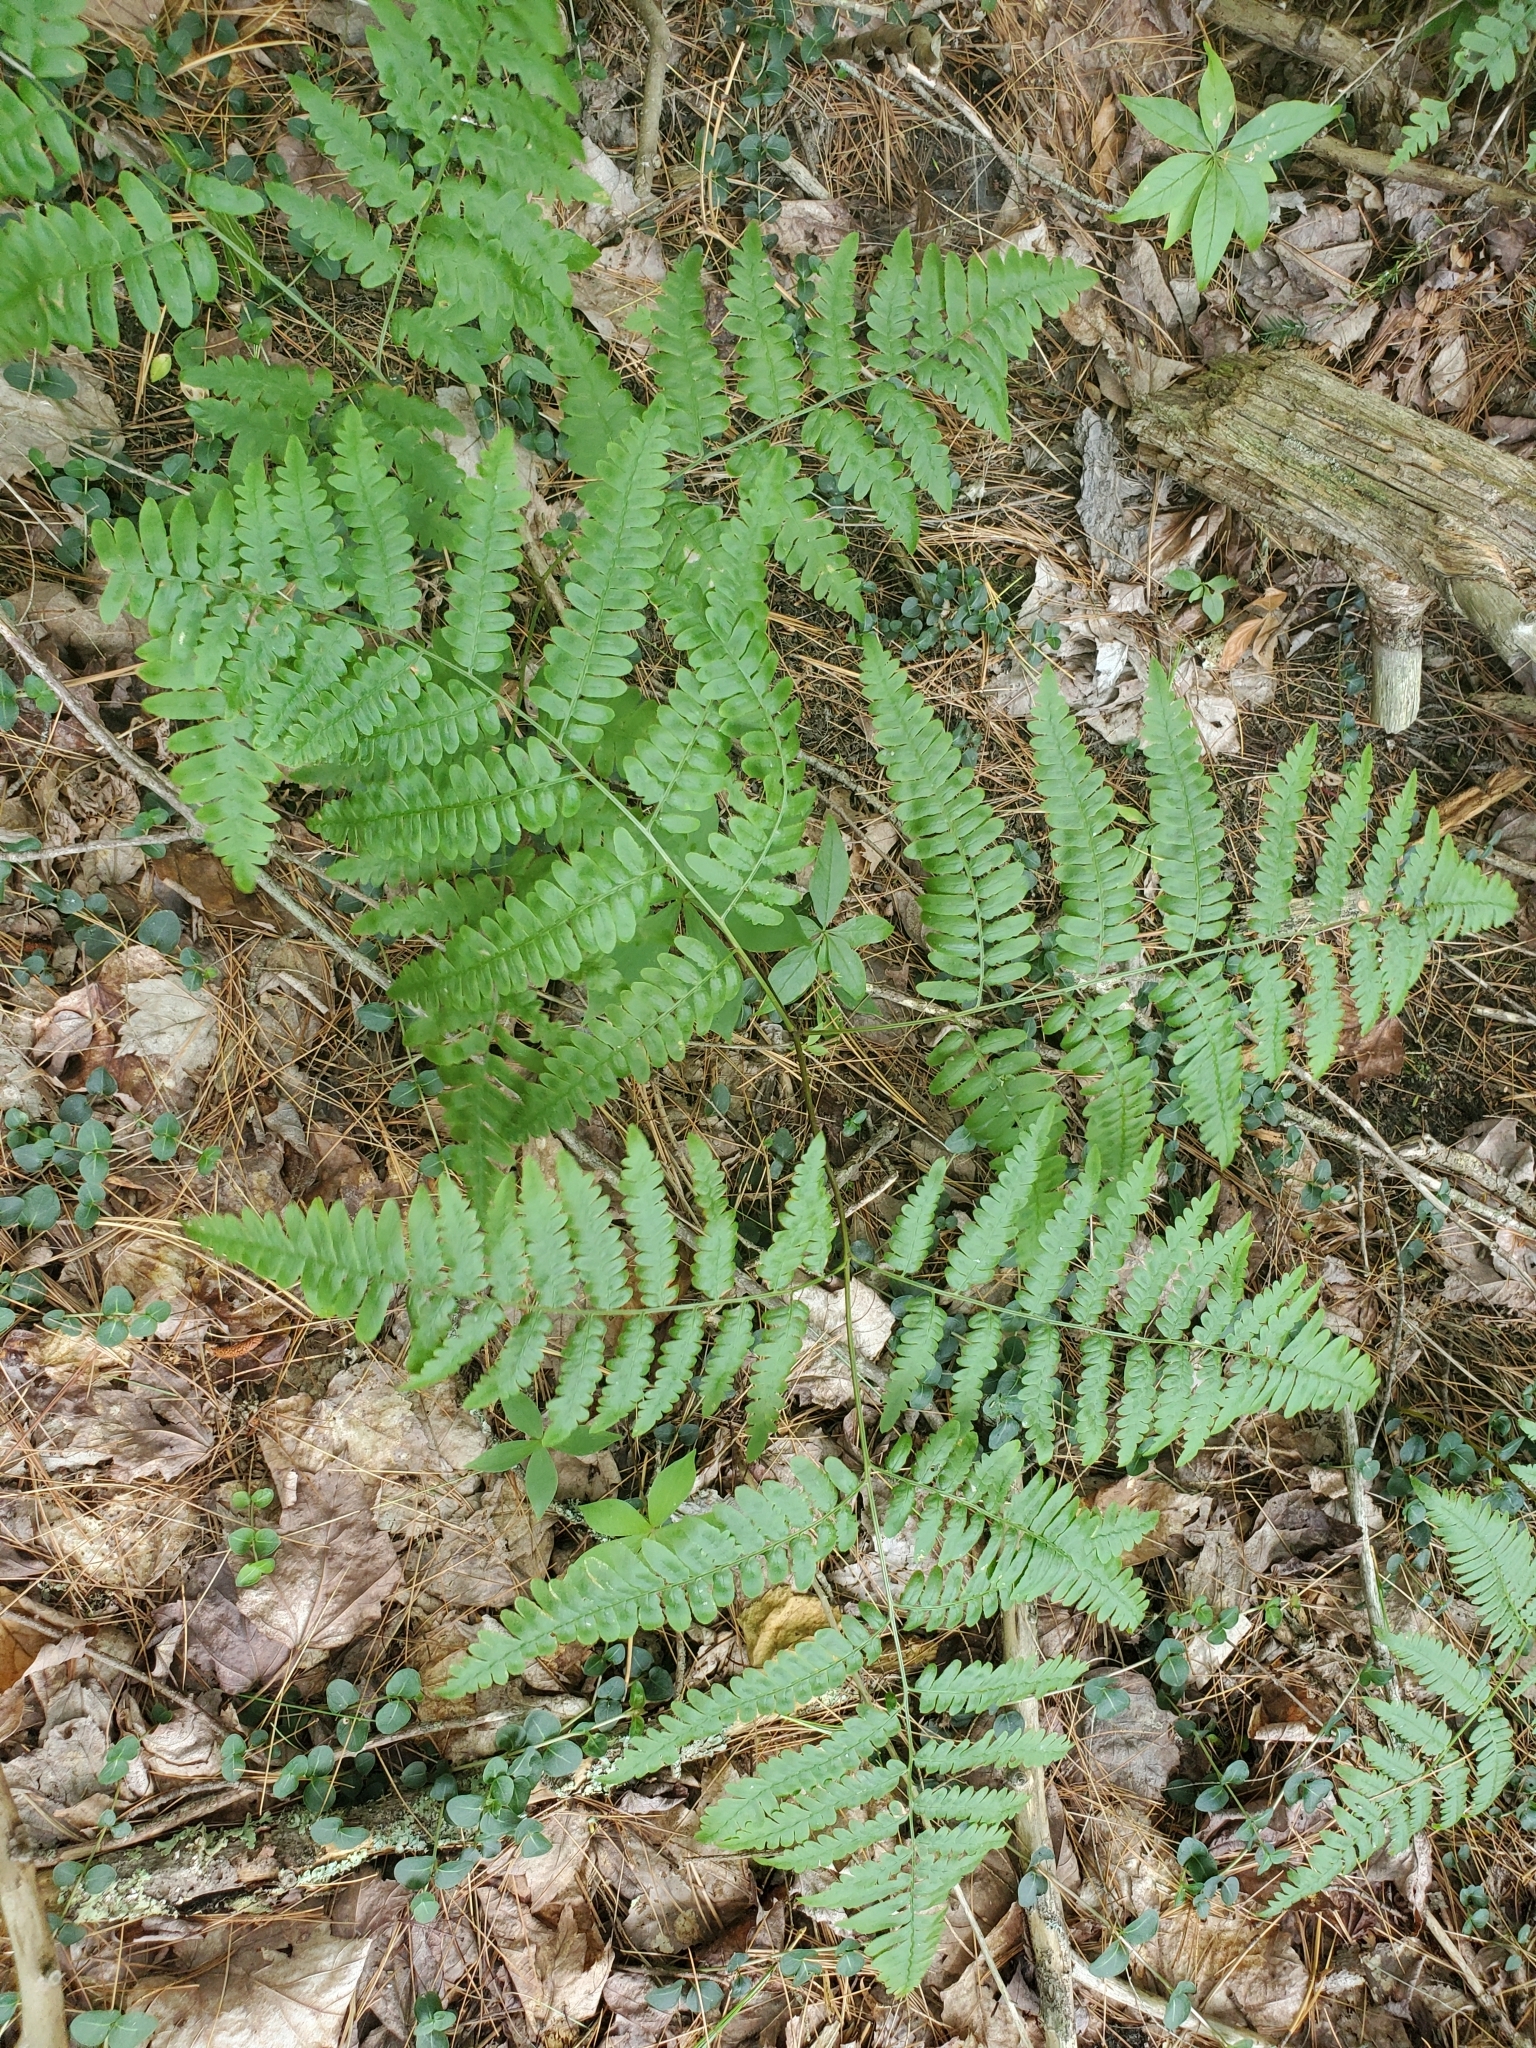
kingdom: Plantae
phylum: Tracheophyta
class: Polypodiopsida
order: Polypodiales
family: Dennstaedtiaceae
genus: Pteridium
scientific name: Pteridium aquilinum
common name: Bracken
